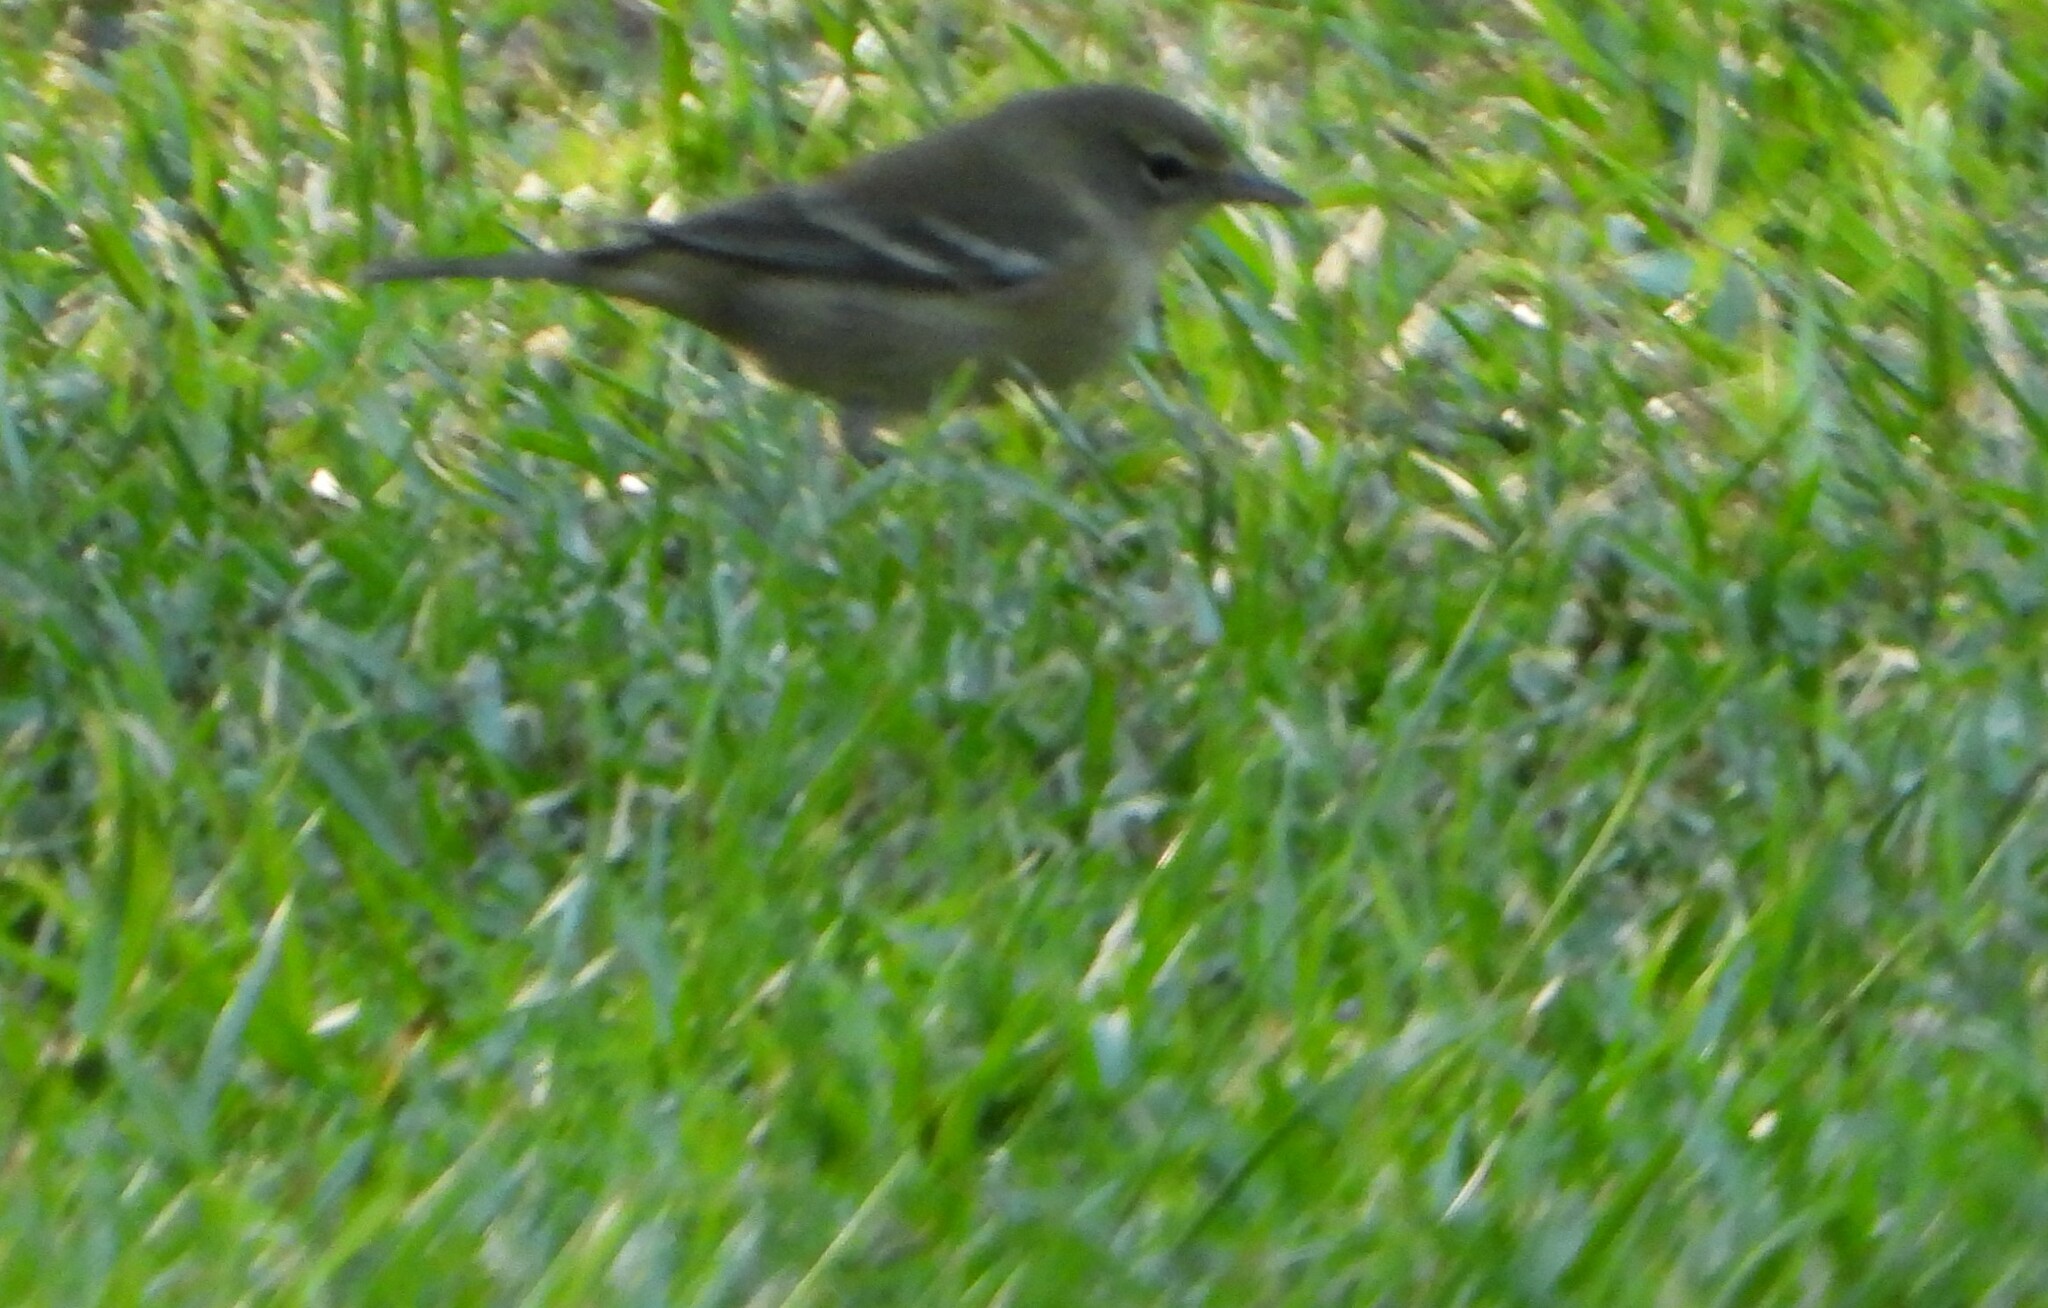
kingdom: Animalia
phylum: Chordata
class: Aves
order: Passeriformes
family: Parulidae
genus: Setophaga
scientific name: Setophaga pinus
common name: Pine warbler
